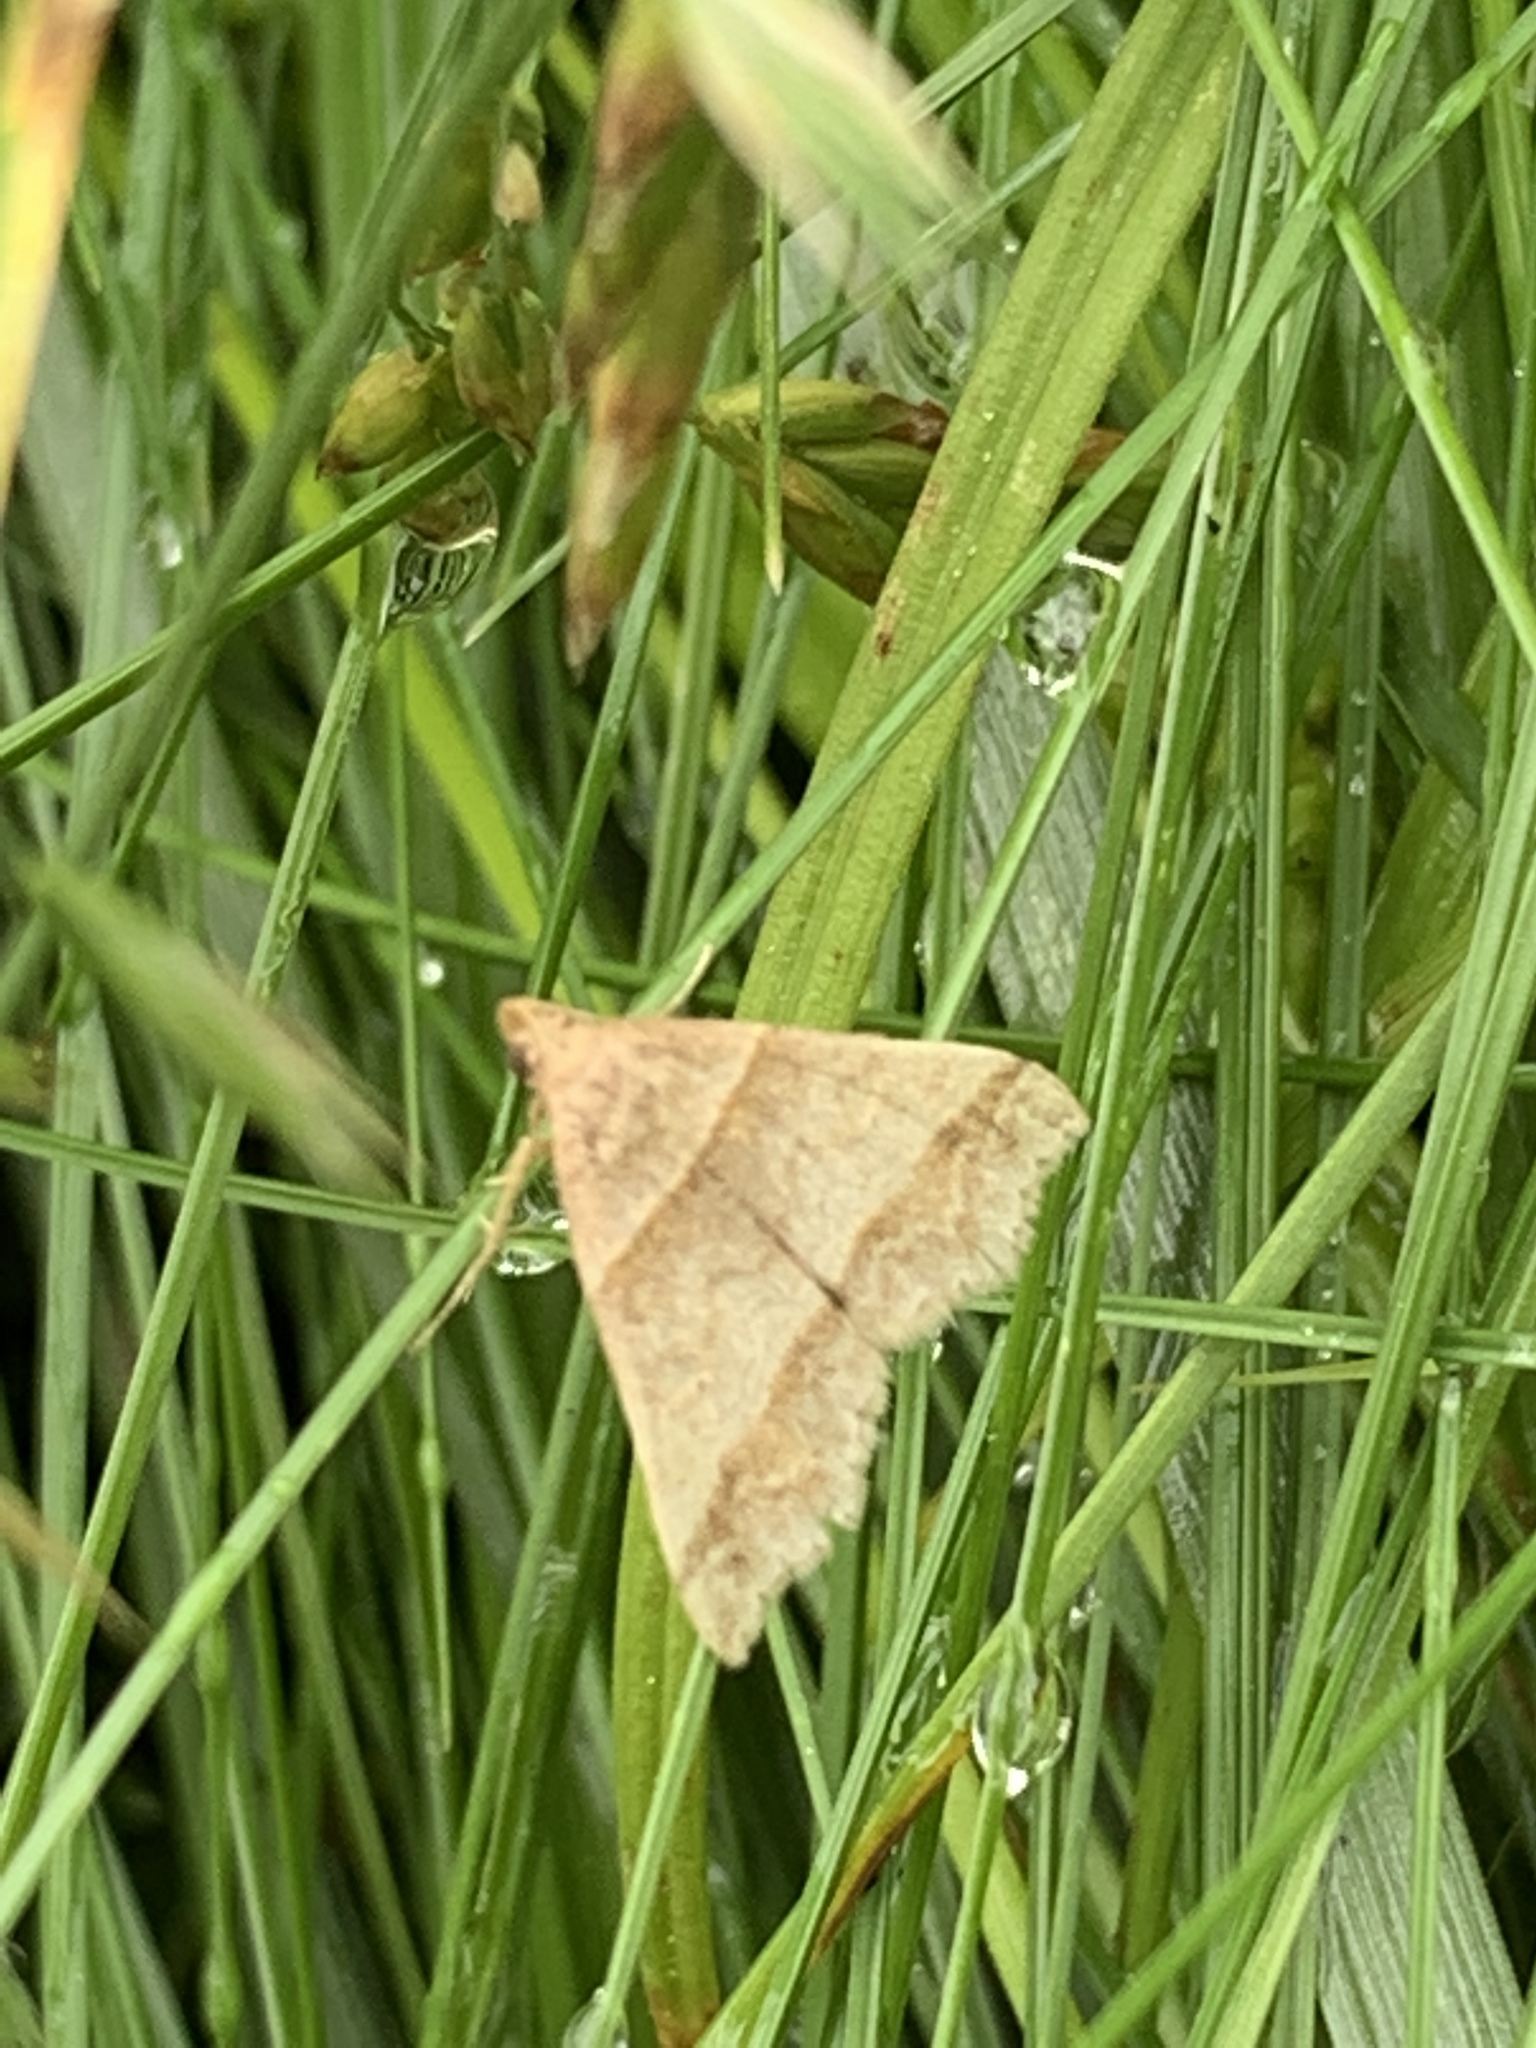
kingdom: Animalia
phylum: Arthropoda
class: Insecta
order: Lepidoptera
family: Erebidae
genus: Phaeolita
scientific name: Phaeolita pyramusalis
